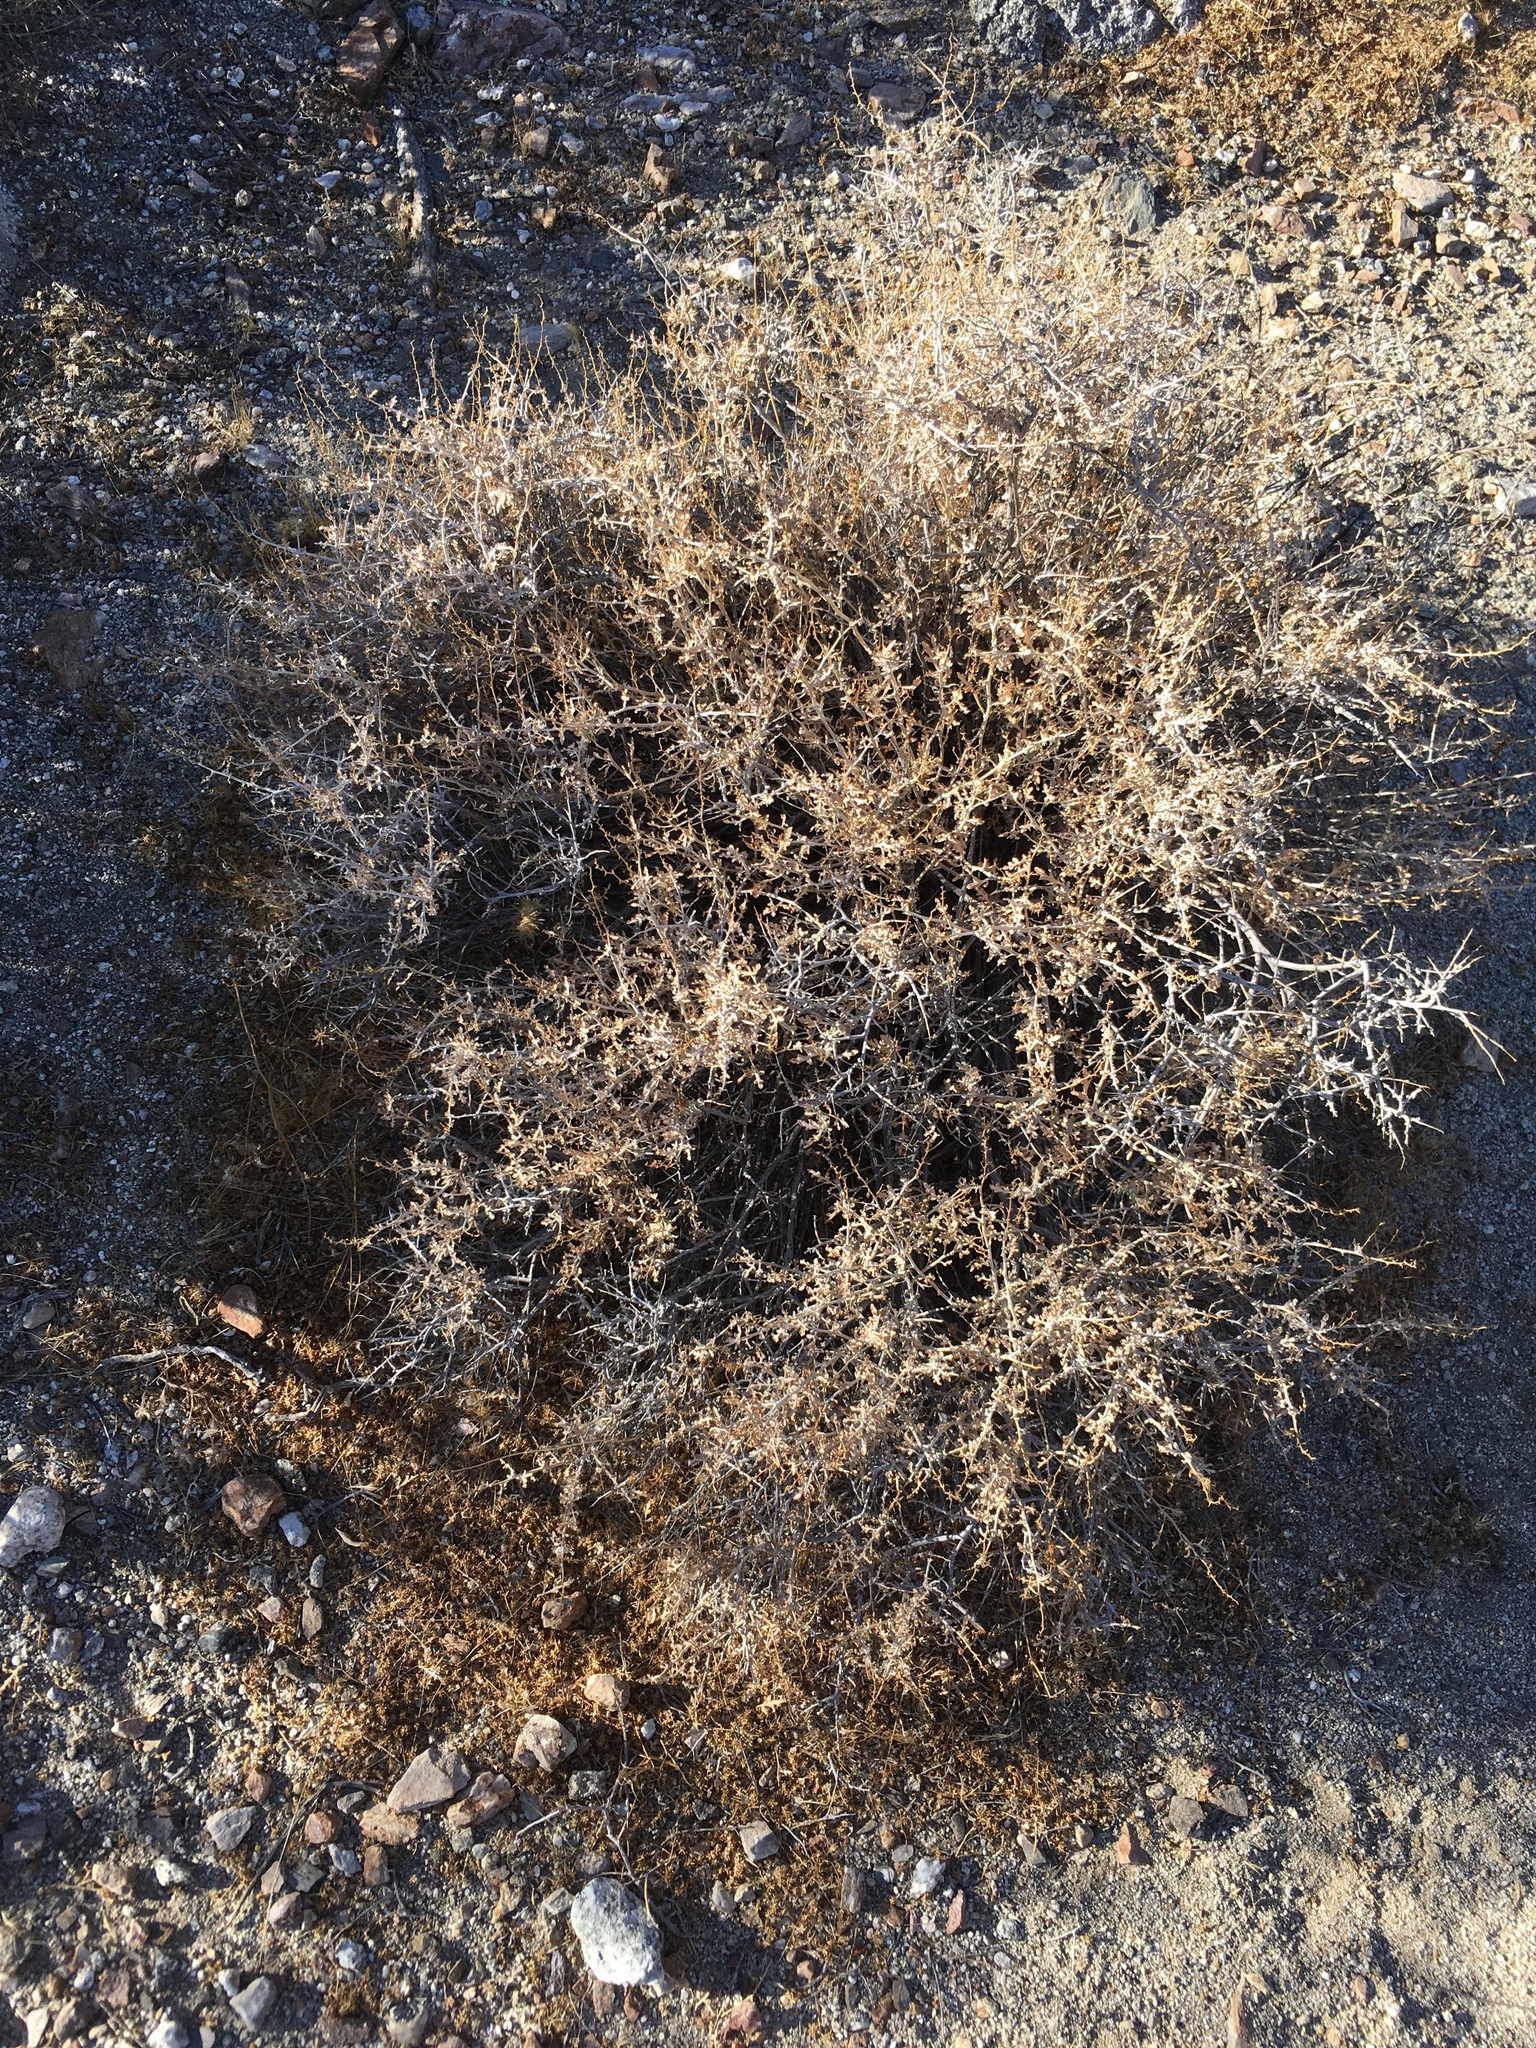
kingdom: Plantae
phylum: Tracheophyta
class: Magnoliopsida
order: Asterales
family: Asteraceae
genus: Ambrosia
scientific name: Ambrosia dumosa
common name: Bur-sage
